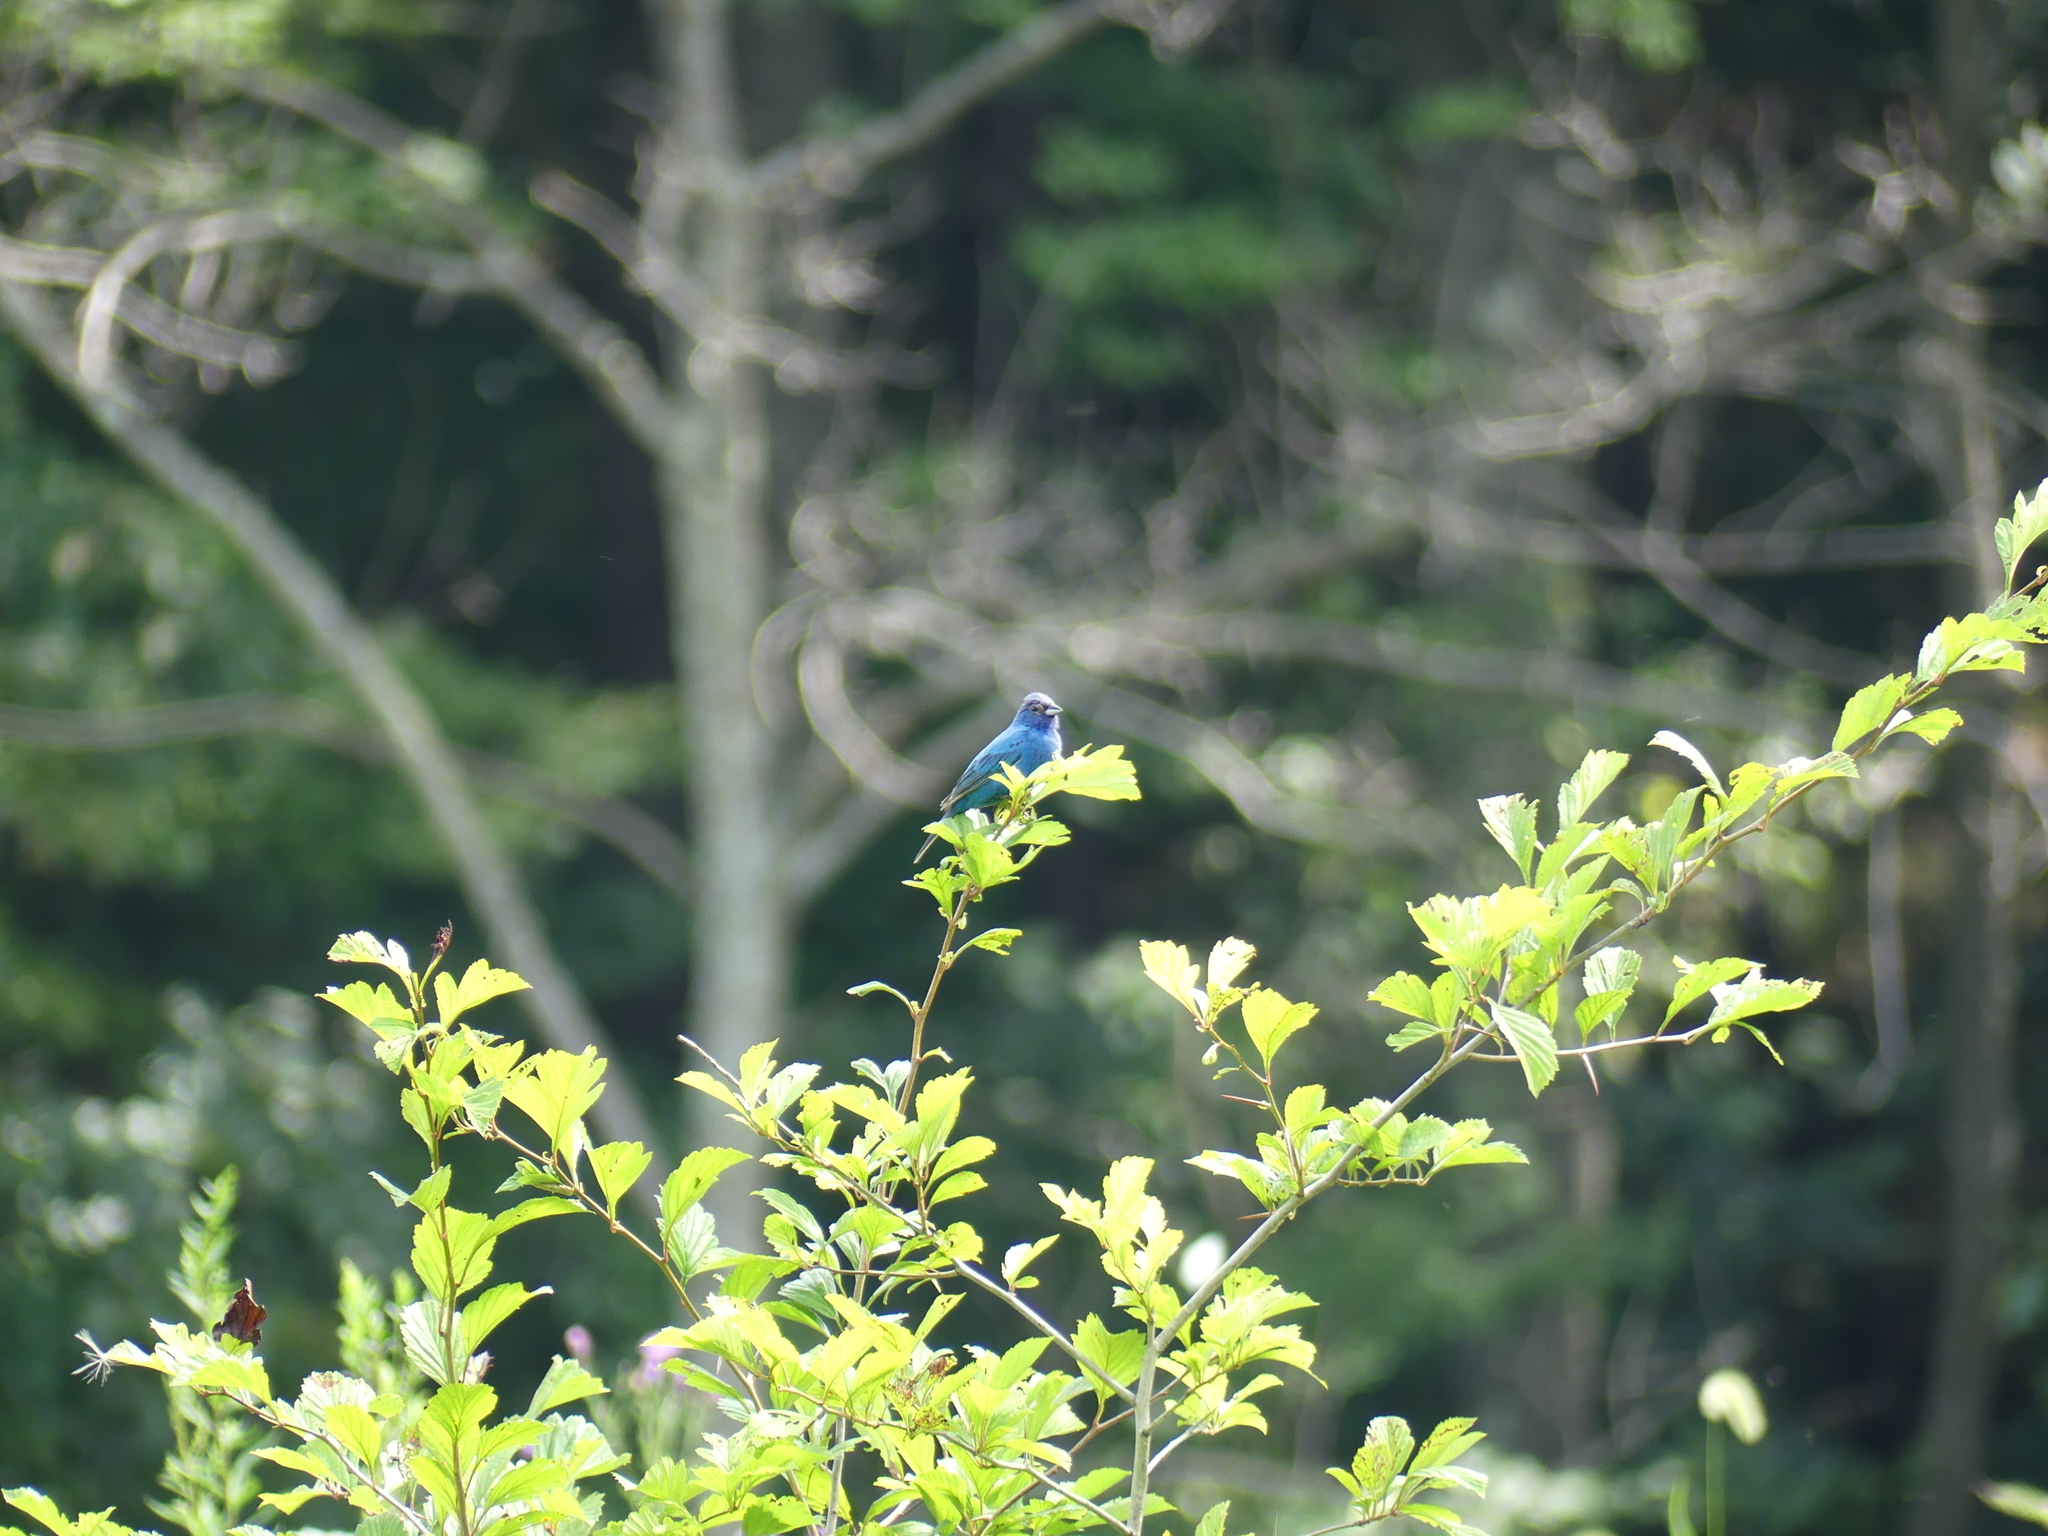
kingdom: Animalia
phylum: Chordata
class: Aves
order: Passeriformes
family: Cardinalidae
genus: Passerina
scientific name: Passerina cyanea
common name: Indigo bunting
